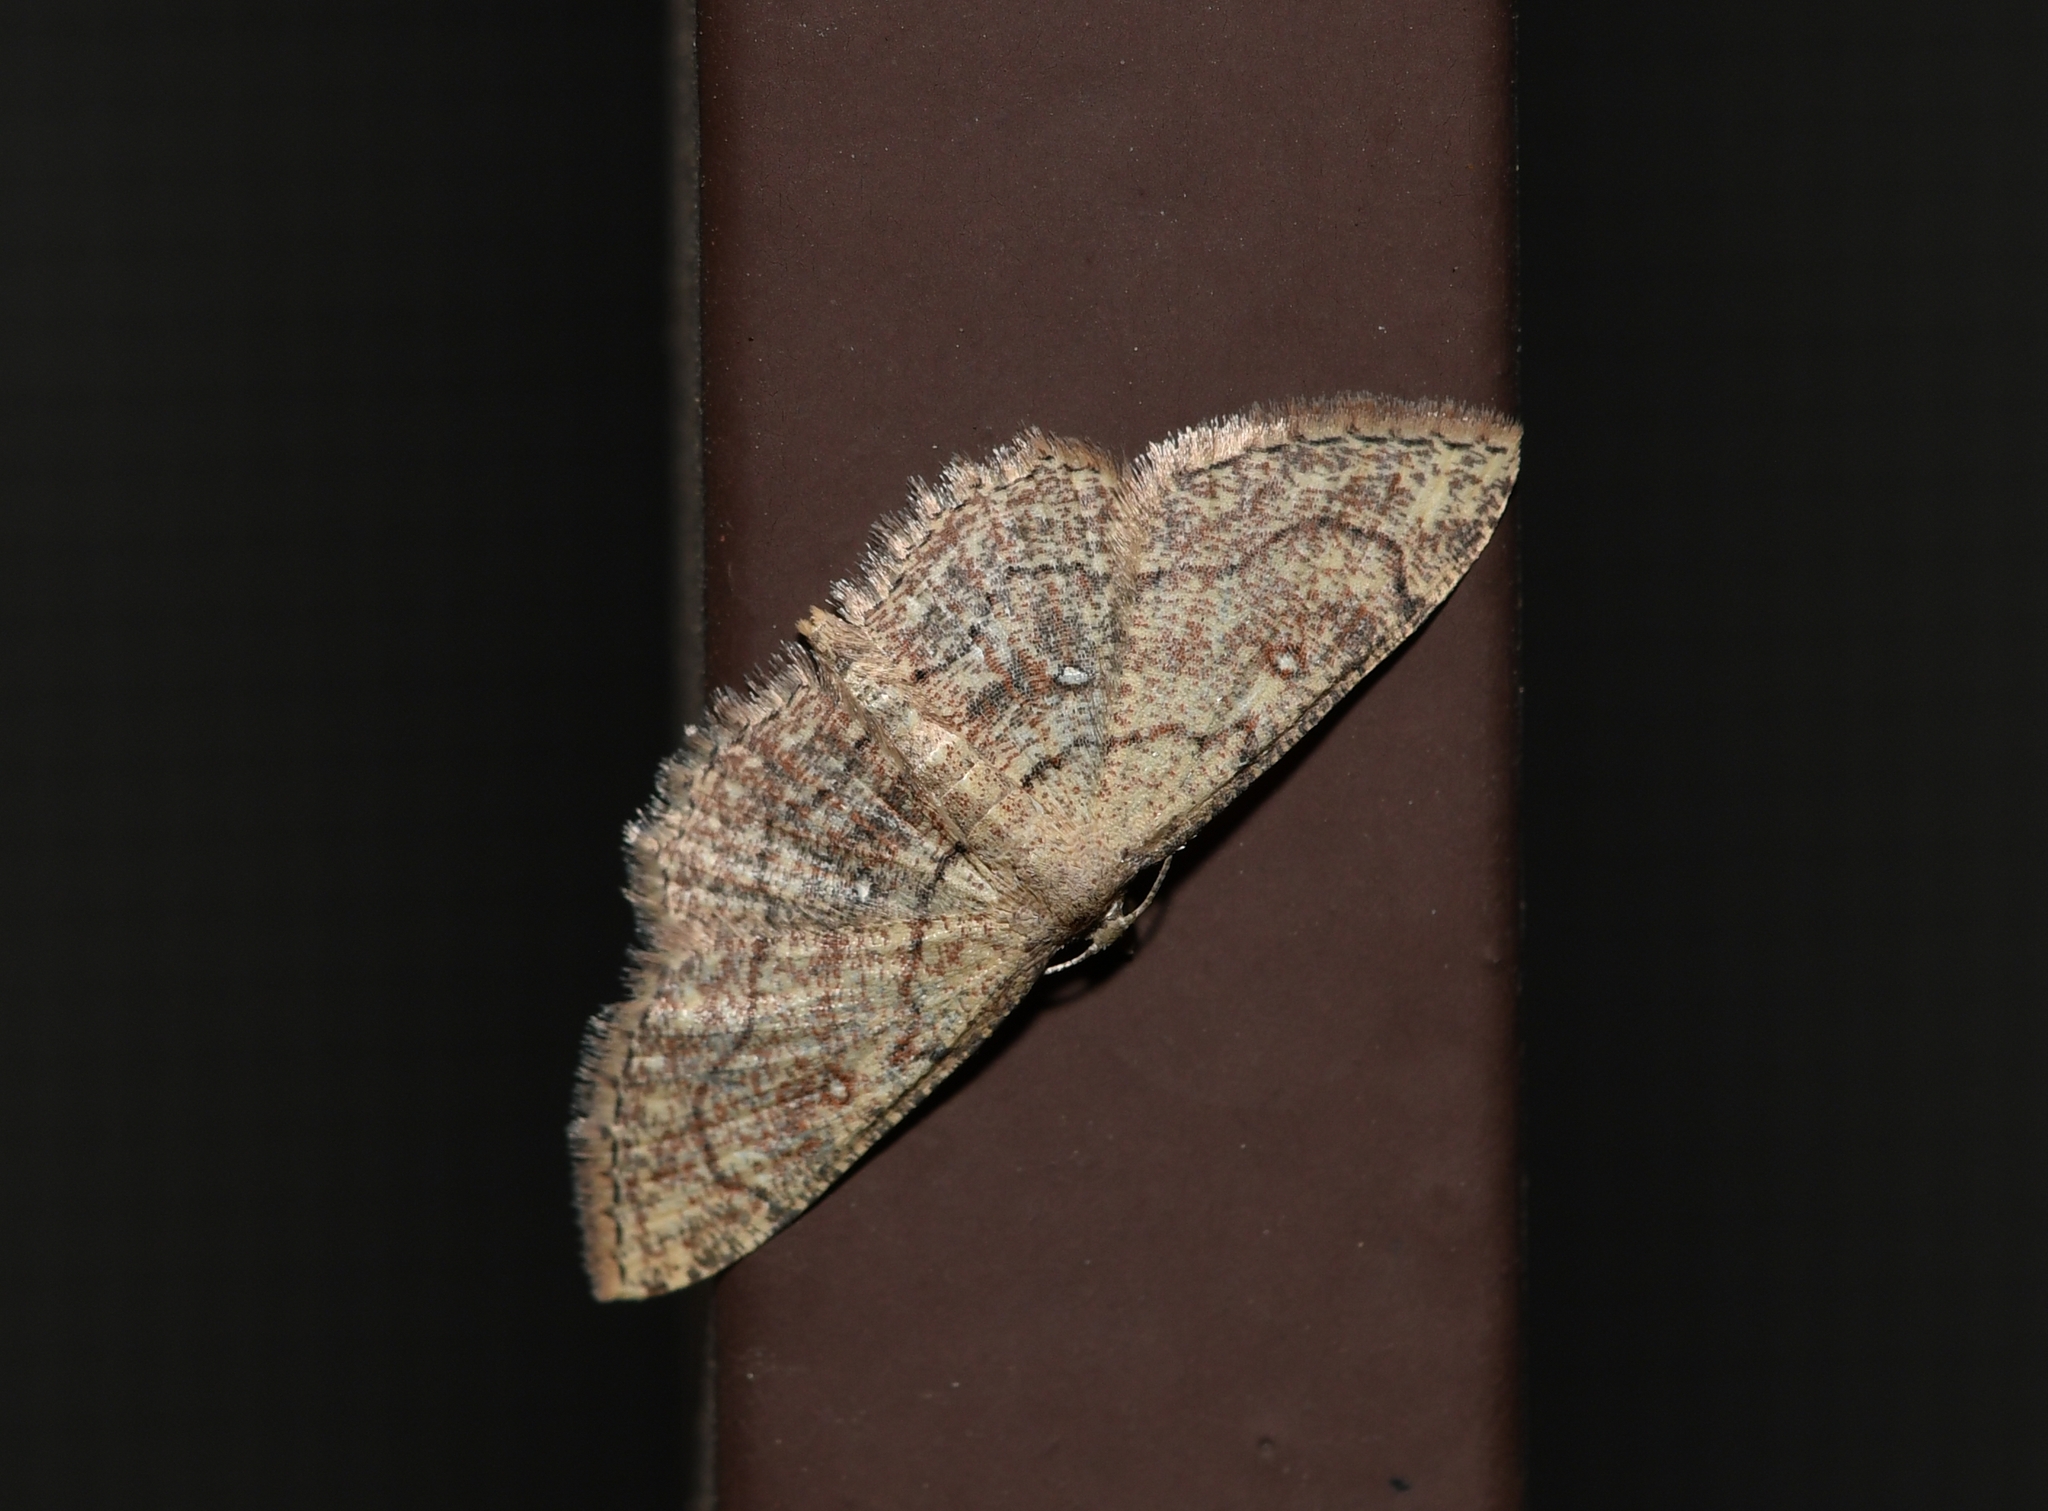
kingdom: Animalia
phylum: Arthropoda
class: Insecta
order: Lepidoptera
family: Geometridae
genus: Cyclophora
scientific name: Cyclophora nanaria
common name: Cankerworm
